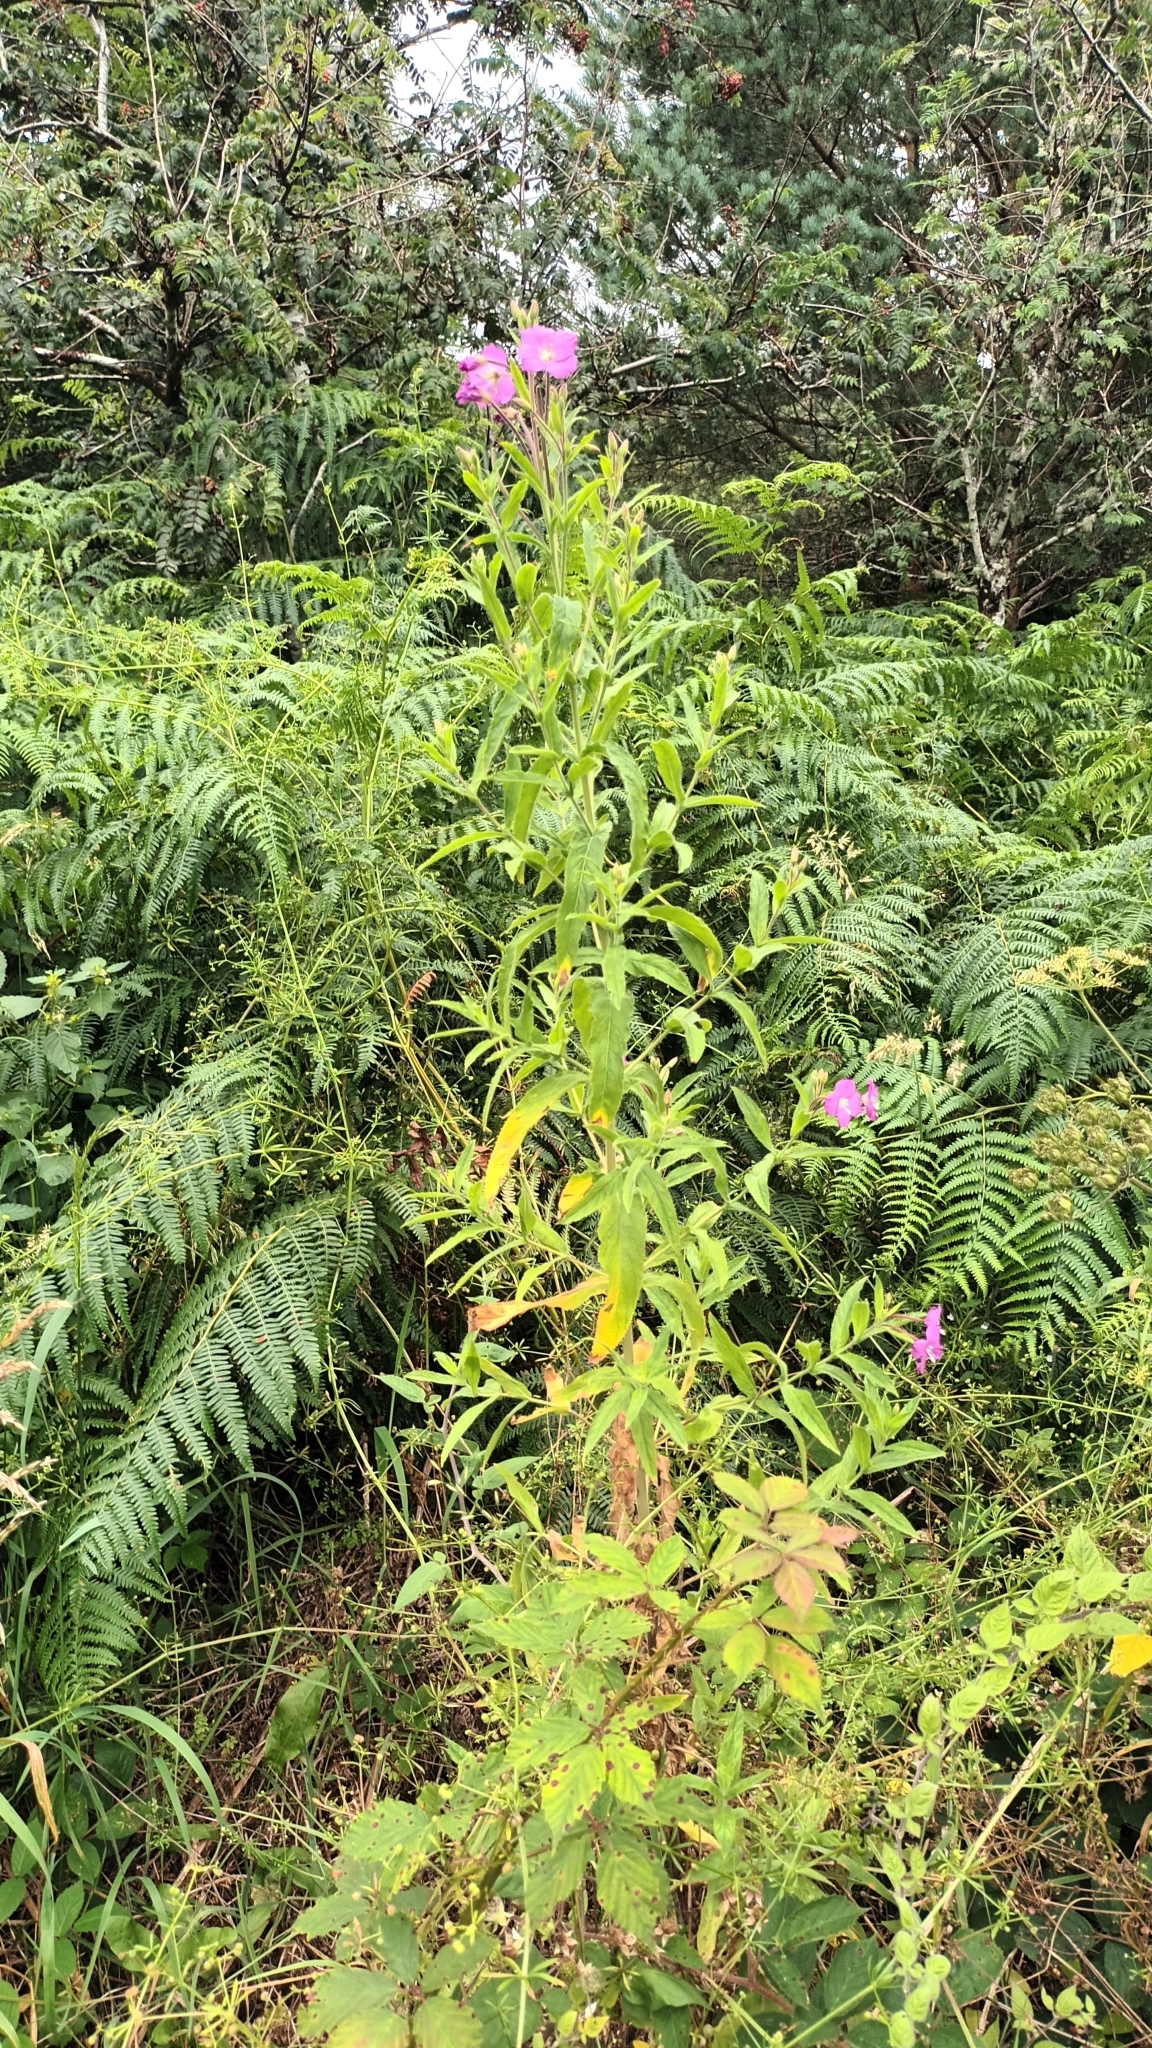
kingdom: Plantae
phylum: Tracheophyta
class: Magnoliopsida
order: Myrtales
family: Onagraceae
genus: Epilobium
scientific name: Epilobium hirsutum
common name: Great willowherb
